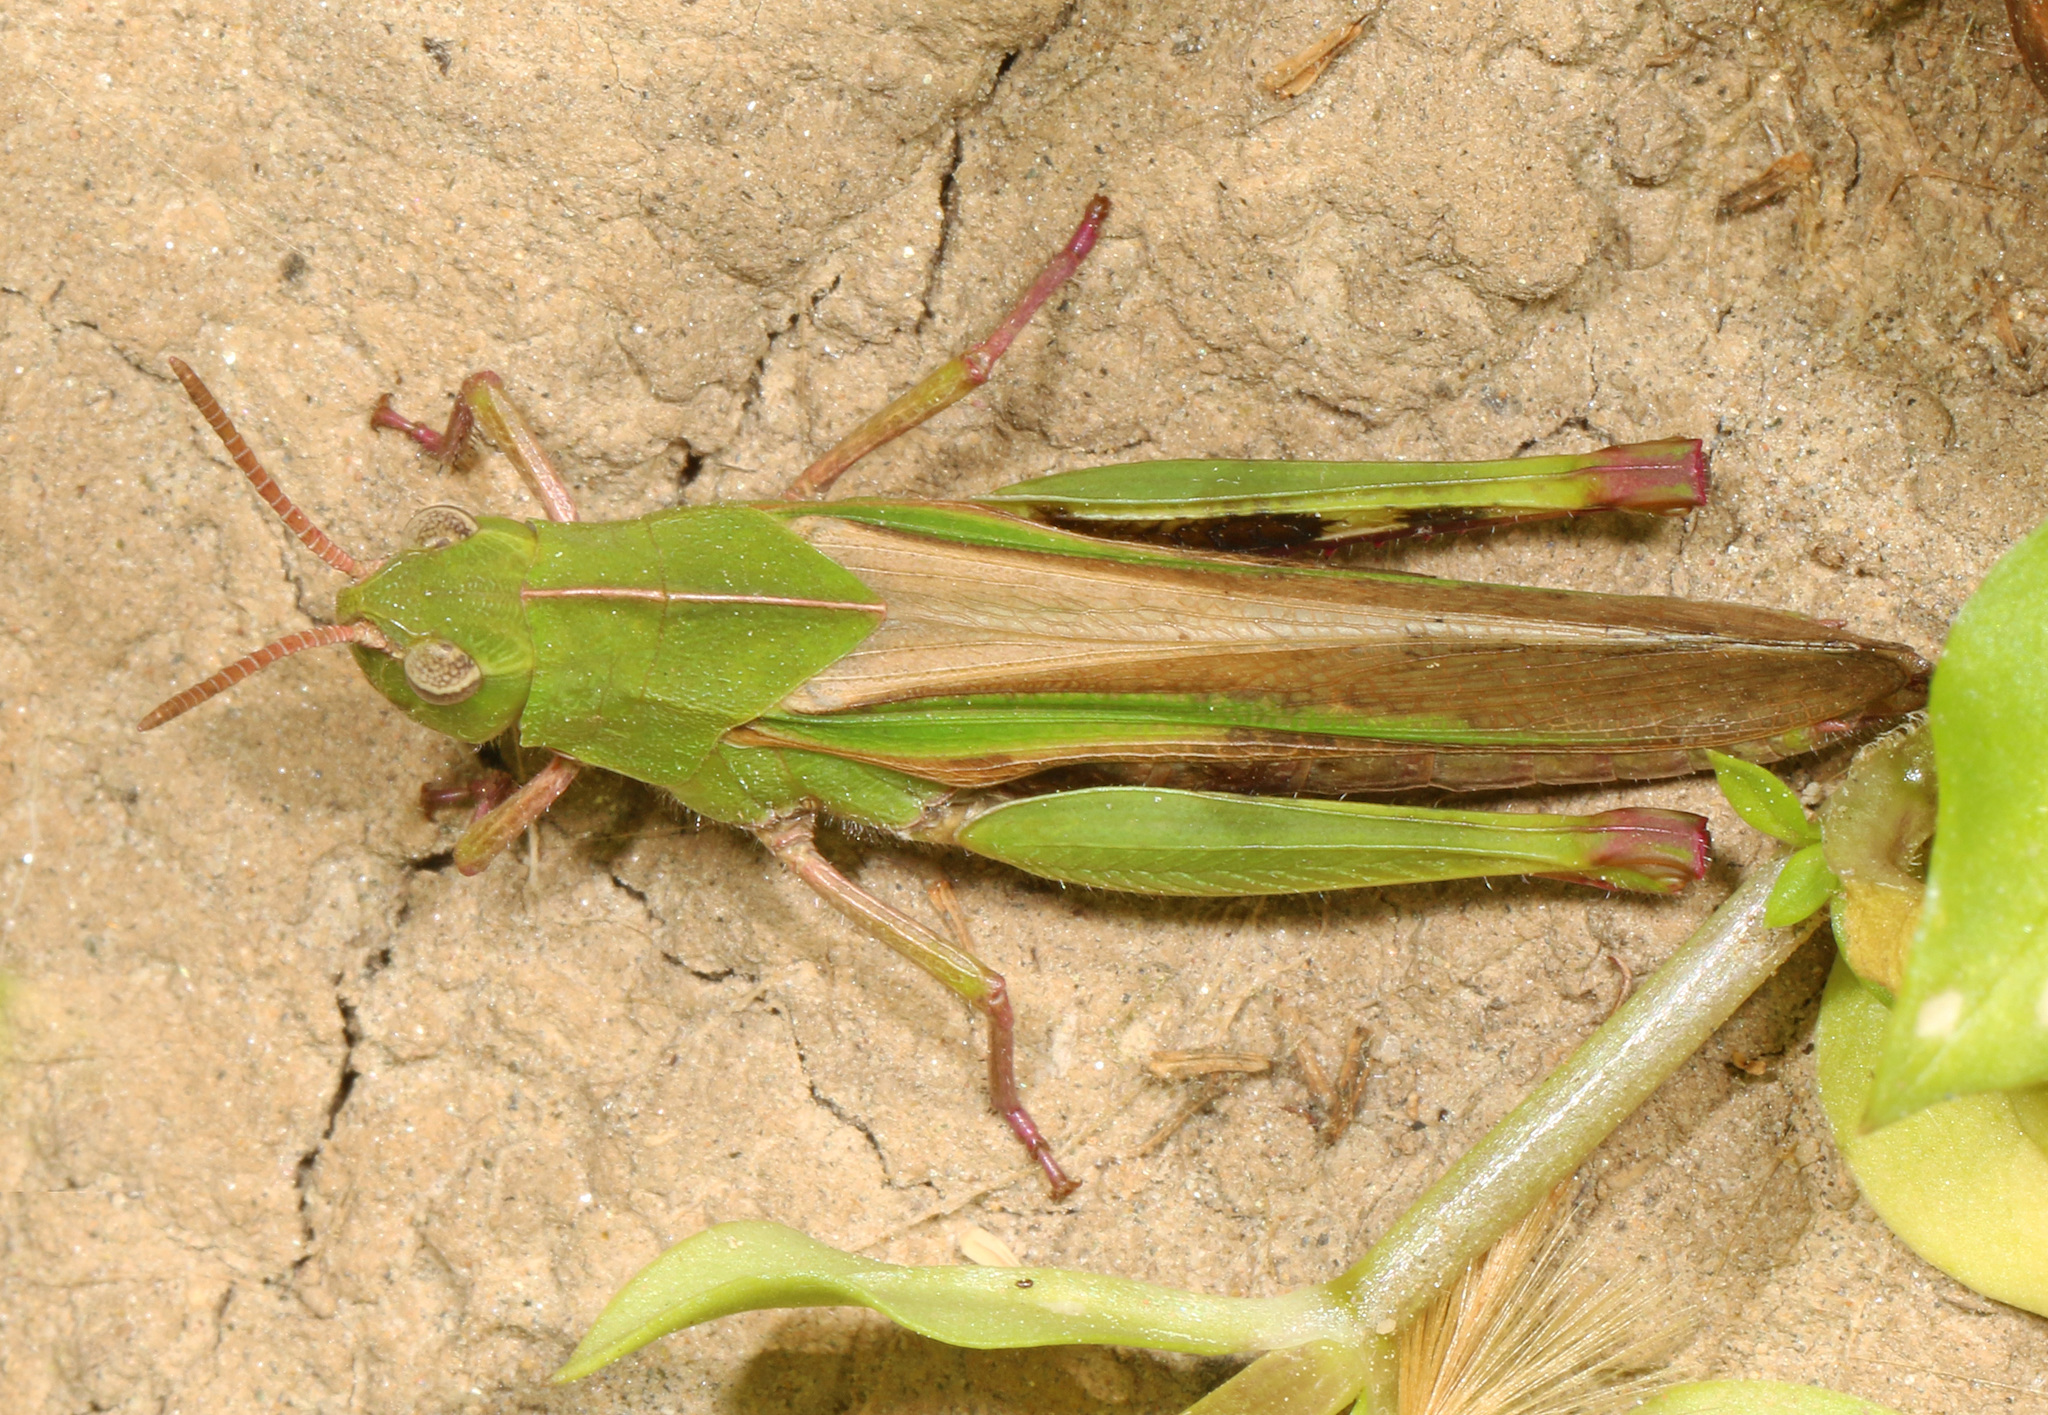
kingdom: Animalia
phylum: Arthropoda
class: Insecta
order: Orthoptera
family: Acrididae
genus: Chortophaga
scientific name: Chortophaga viridifasciata
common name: Green-striped grasshopper
